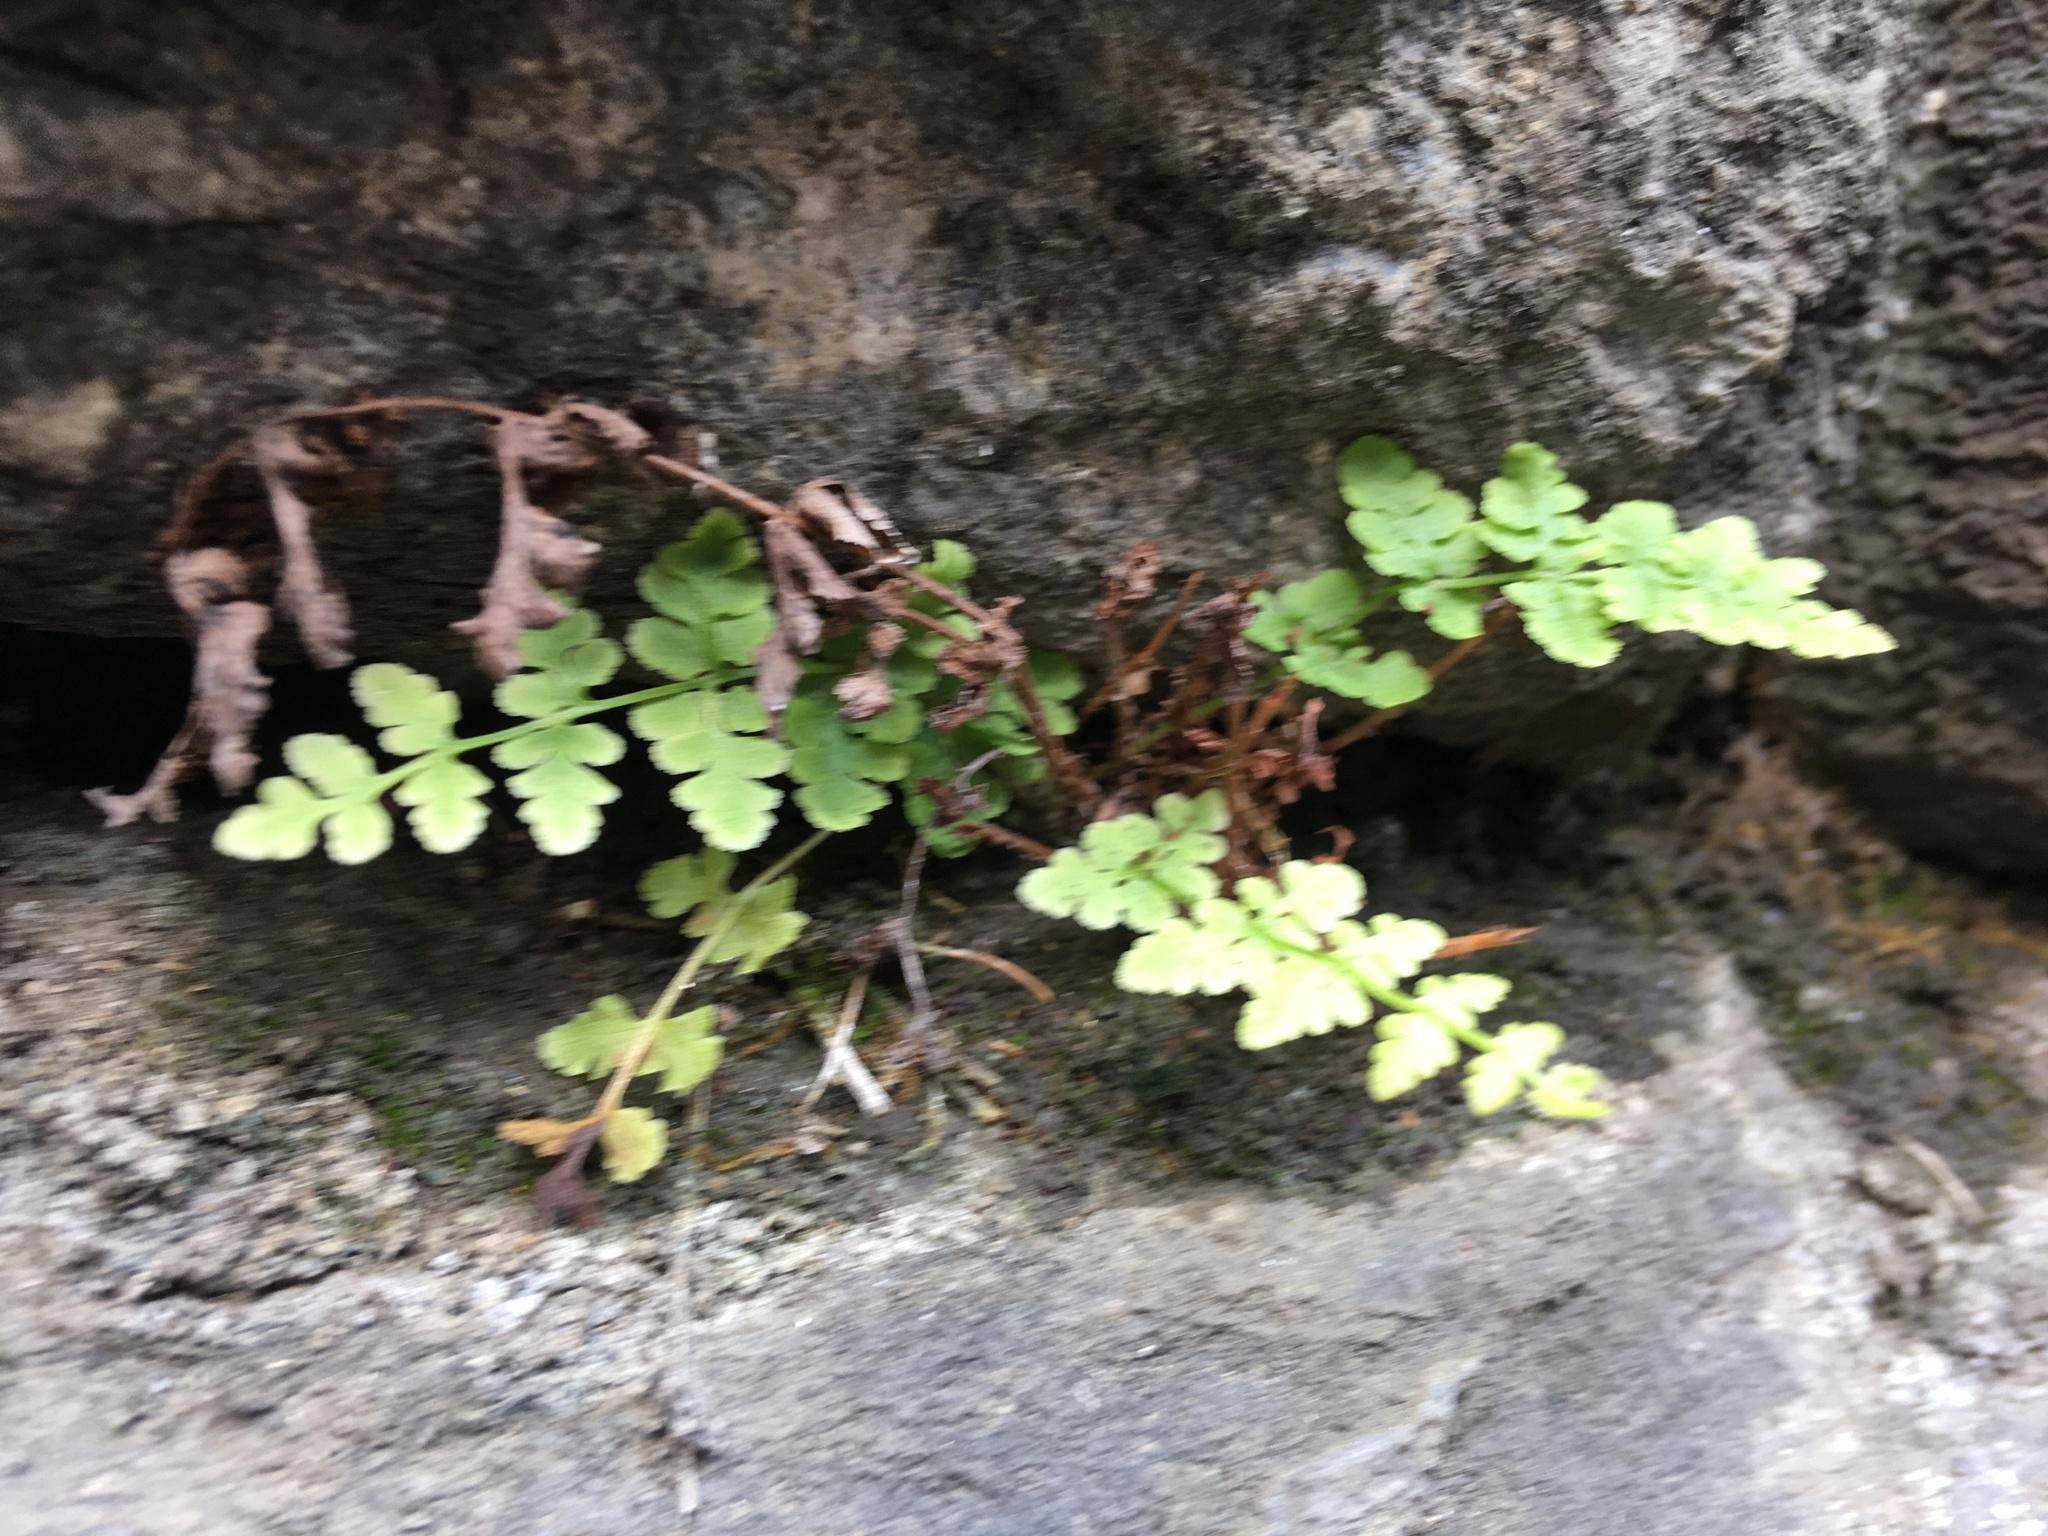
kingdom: Plantae
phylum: Tracheophyta
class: Polypodiopsida
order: Polypodiales
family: Woodsiaceae
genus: Physematium
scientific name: Physematium obtusum
